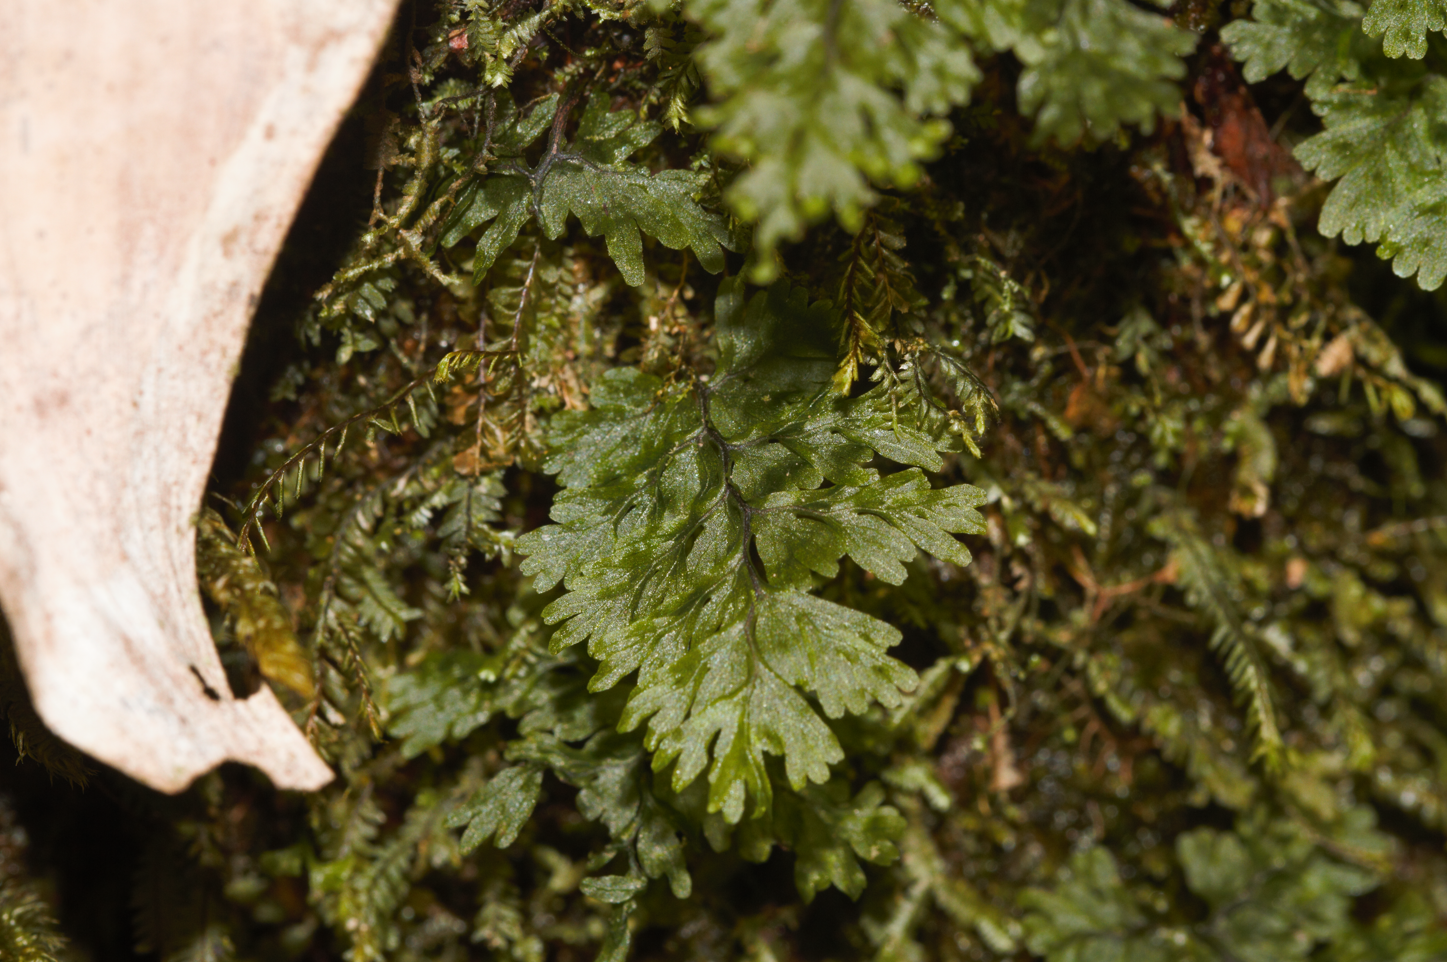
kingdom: Plantae
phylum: Tracheophyta
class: Polypodiopsida
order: Hymenophyllales
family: Hymenophyllaceae
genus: Hymenophyllum
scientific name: Hymenophyllum polyanthos
